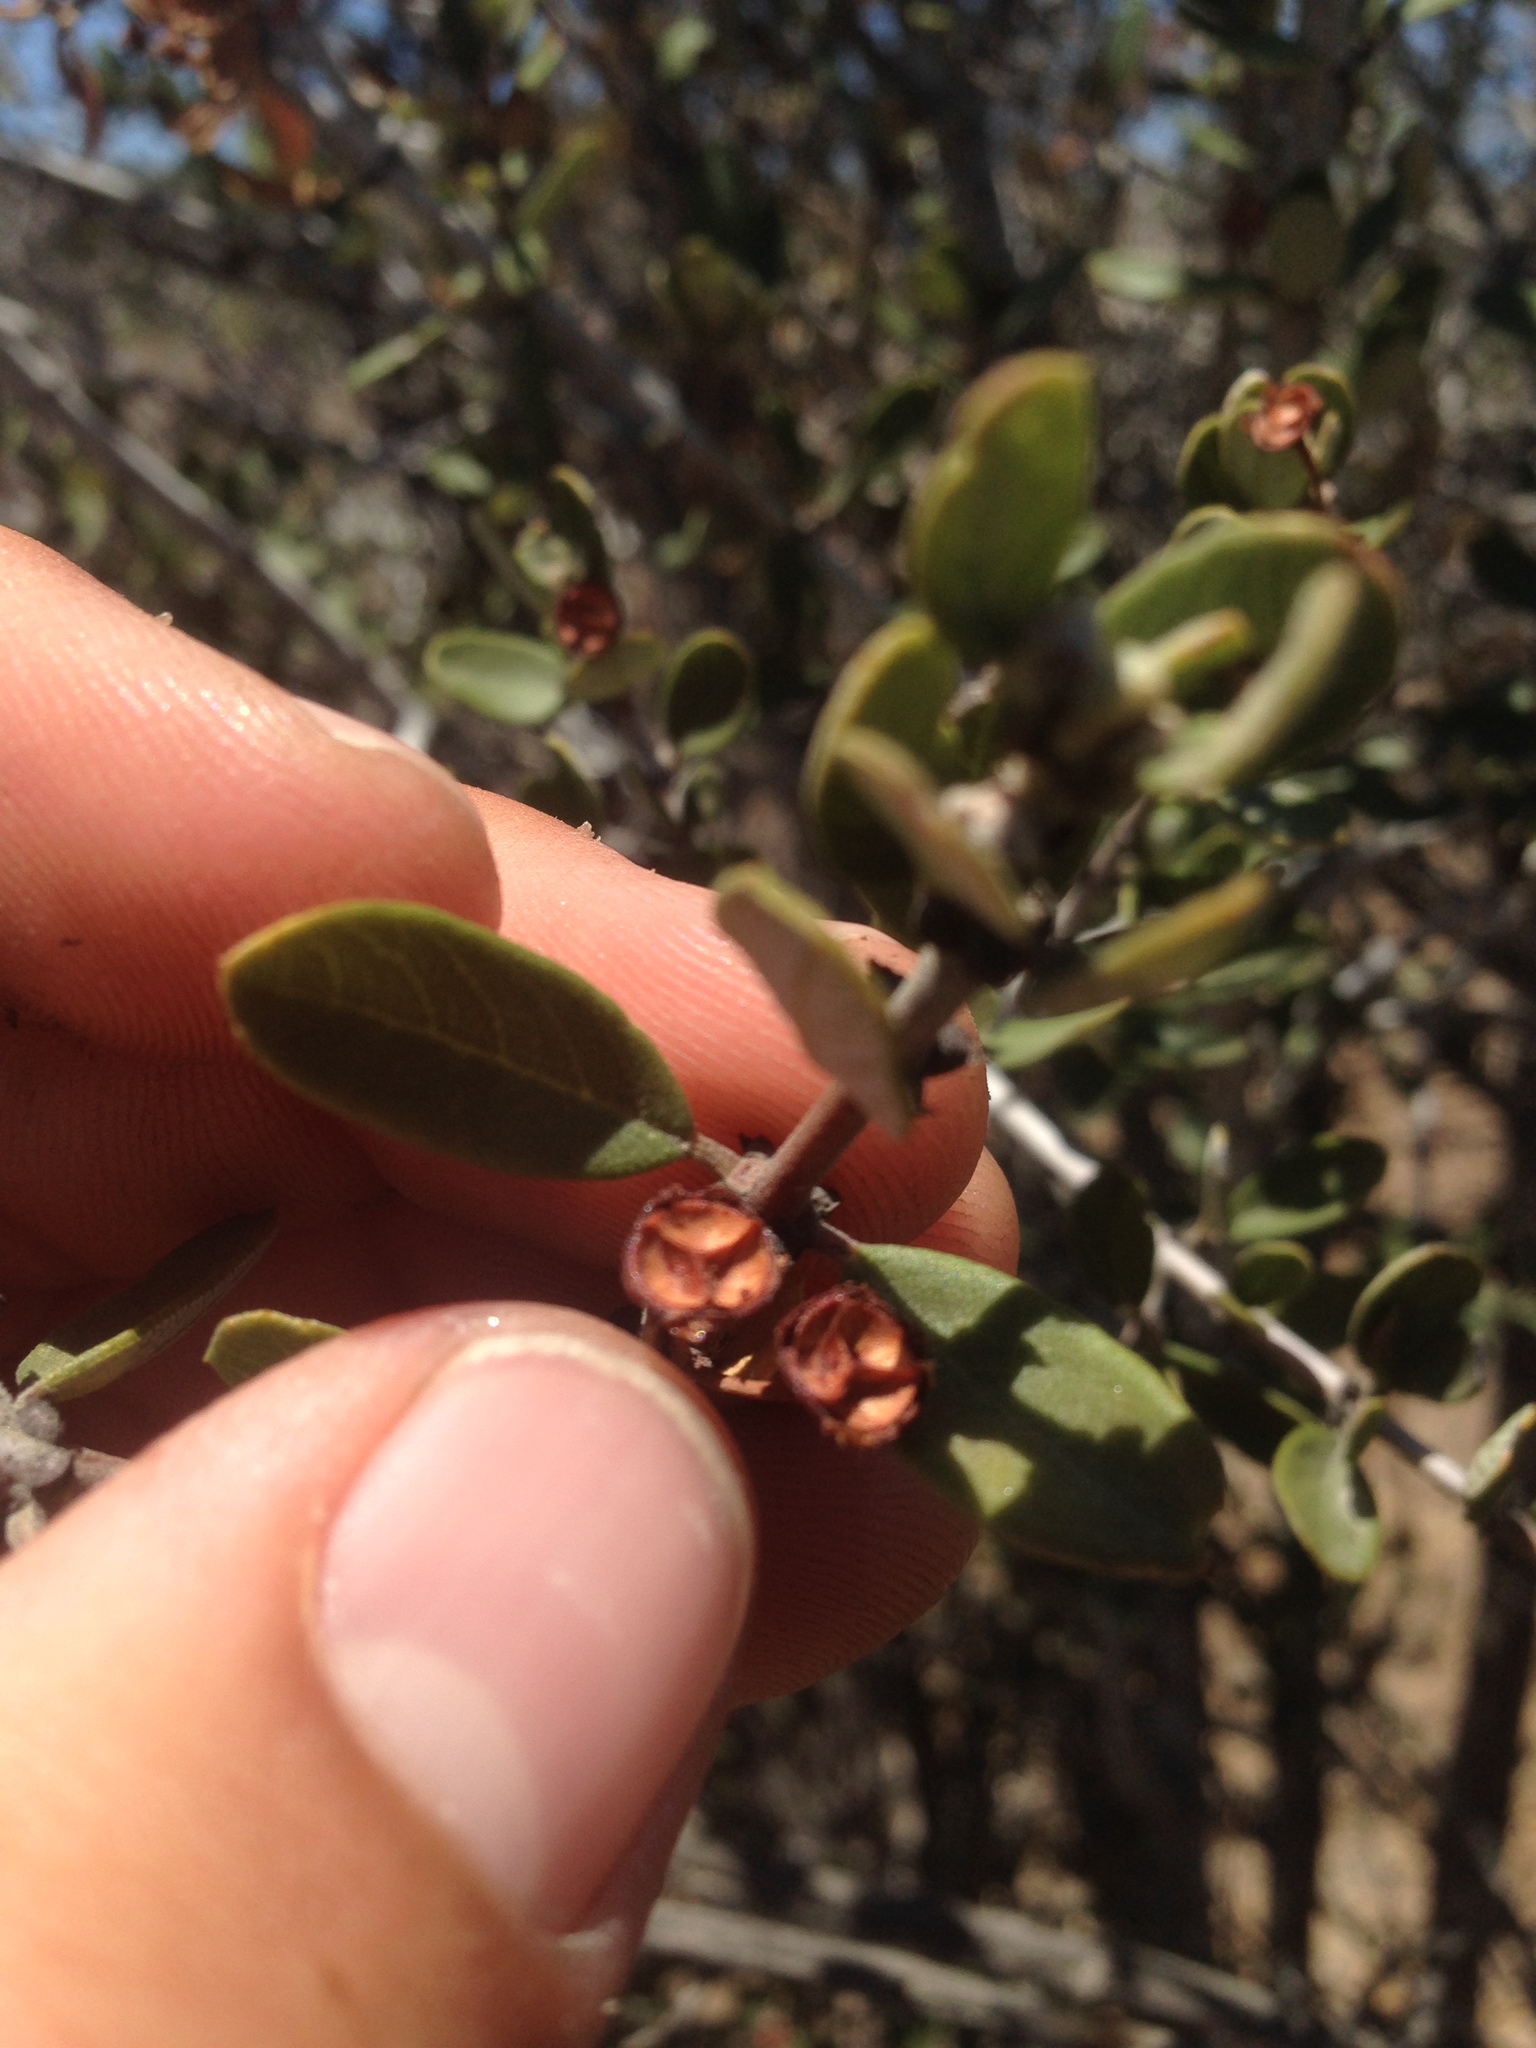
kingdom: Plantae
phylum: Tracheophyta
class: Magnoliopsida
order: Rosales
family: Rhamnaceae
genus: Ceanothus
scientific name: Ceanothus cuneatus
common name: Cuneate ceanothus
